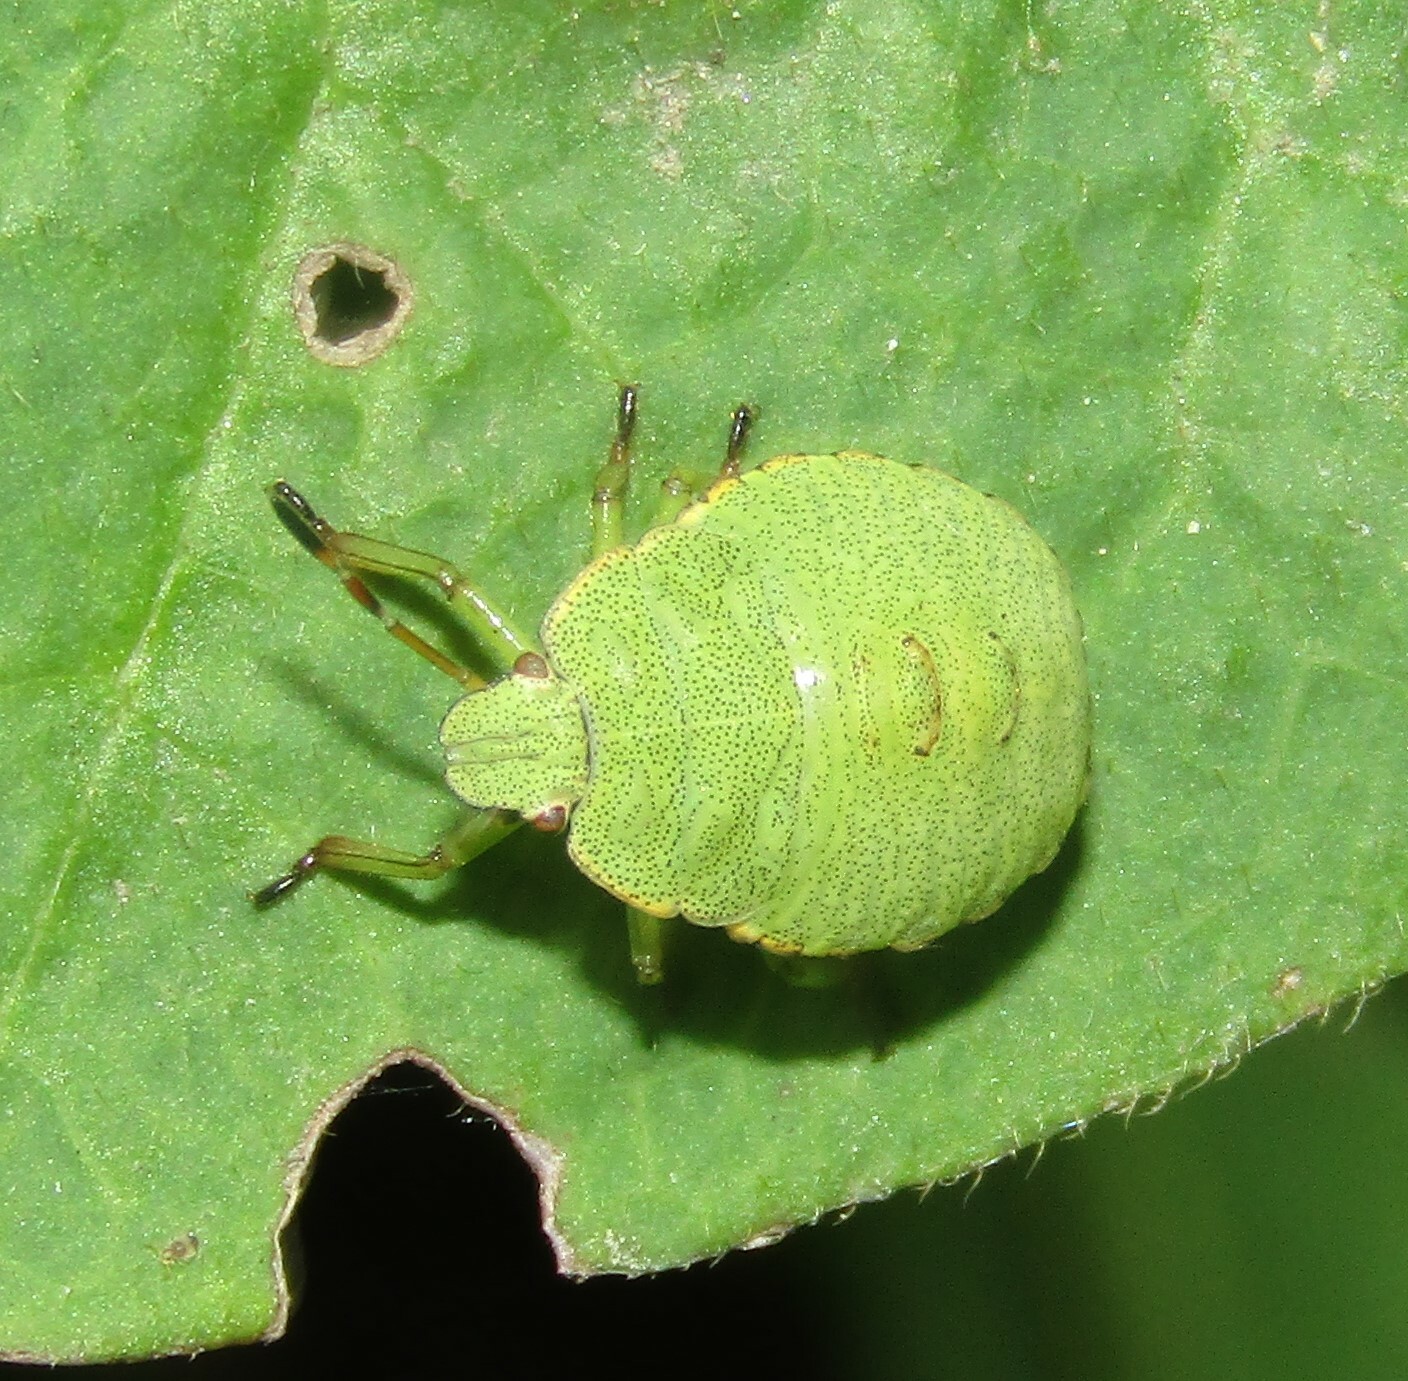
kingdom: Animalia
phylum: Arthropoda
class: Insecta
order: Hemiptera
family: Pentatomidae
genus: Palomena
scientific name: Palomena prasina
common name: Green shieldbug
